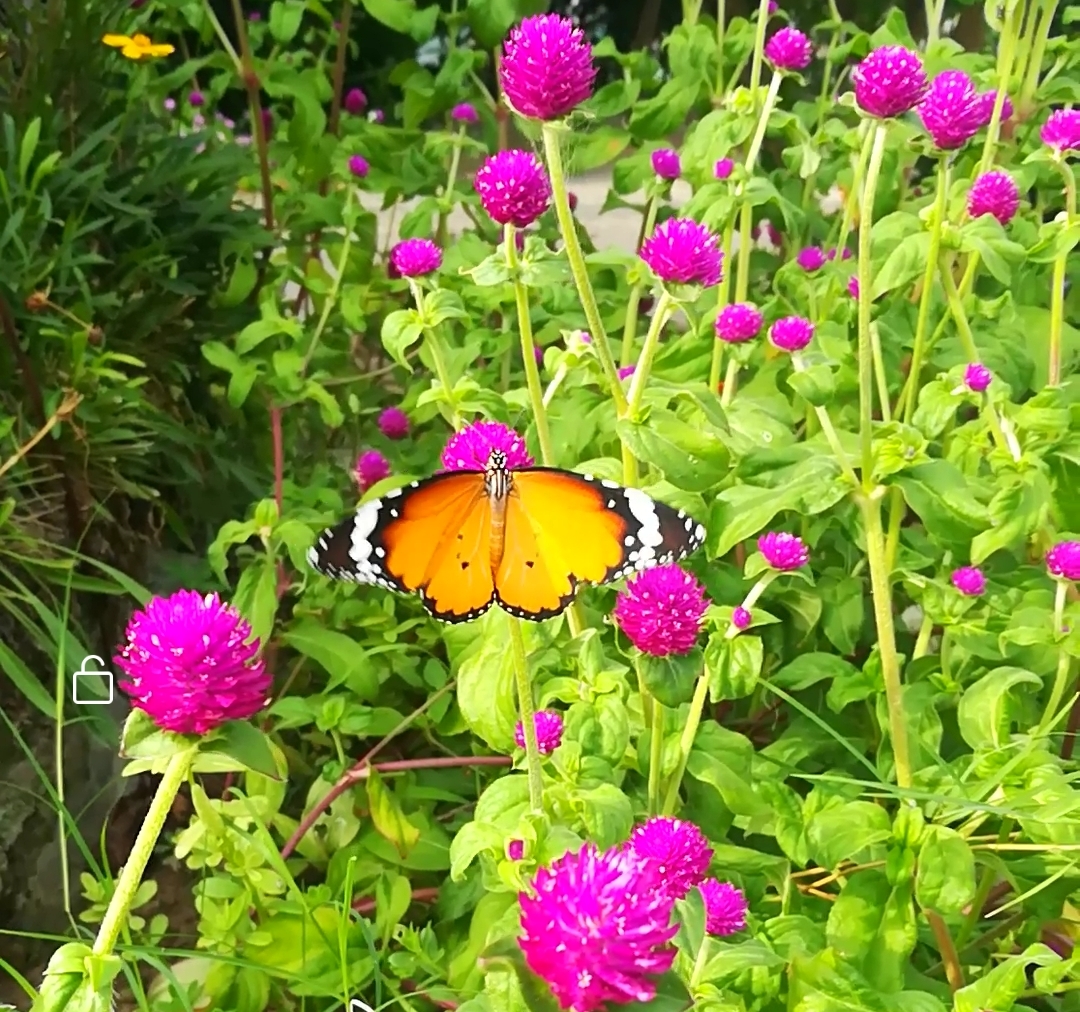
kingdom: Animalia
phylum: Arthropoda
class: Insecta
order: Lepidoptera
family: Nymphalidae
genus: Danaus
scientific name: Danaus chrysippus
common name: Plain tiger
